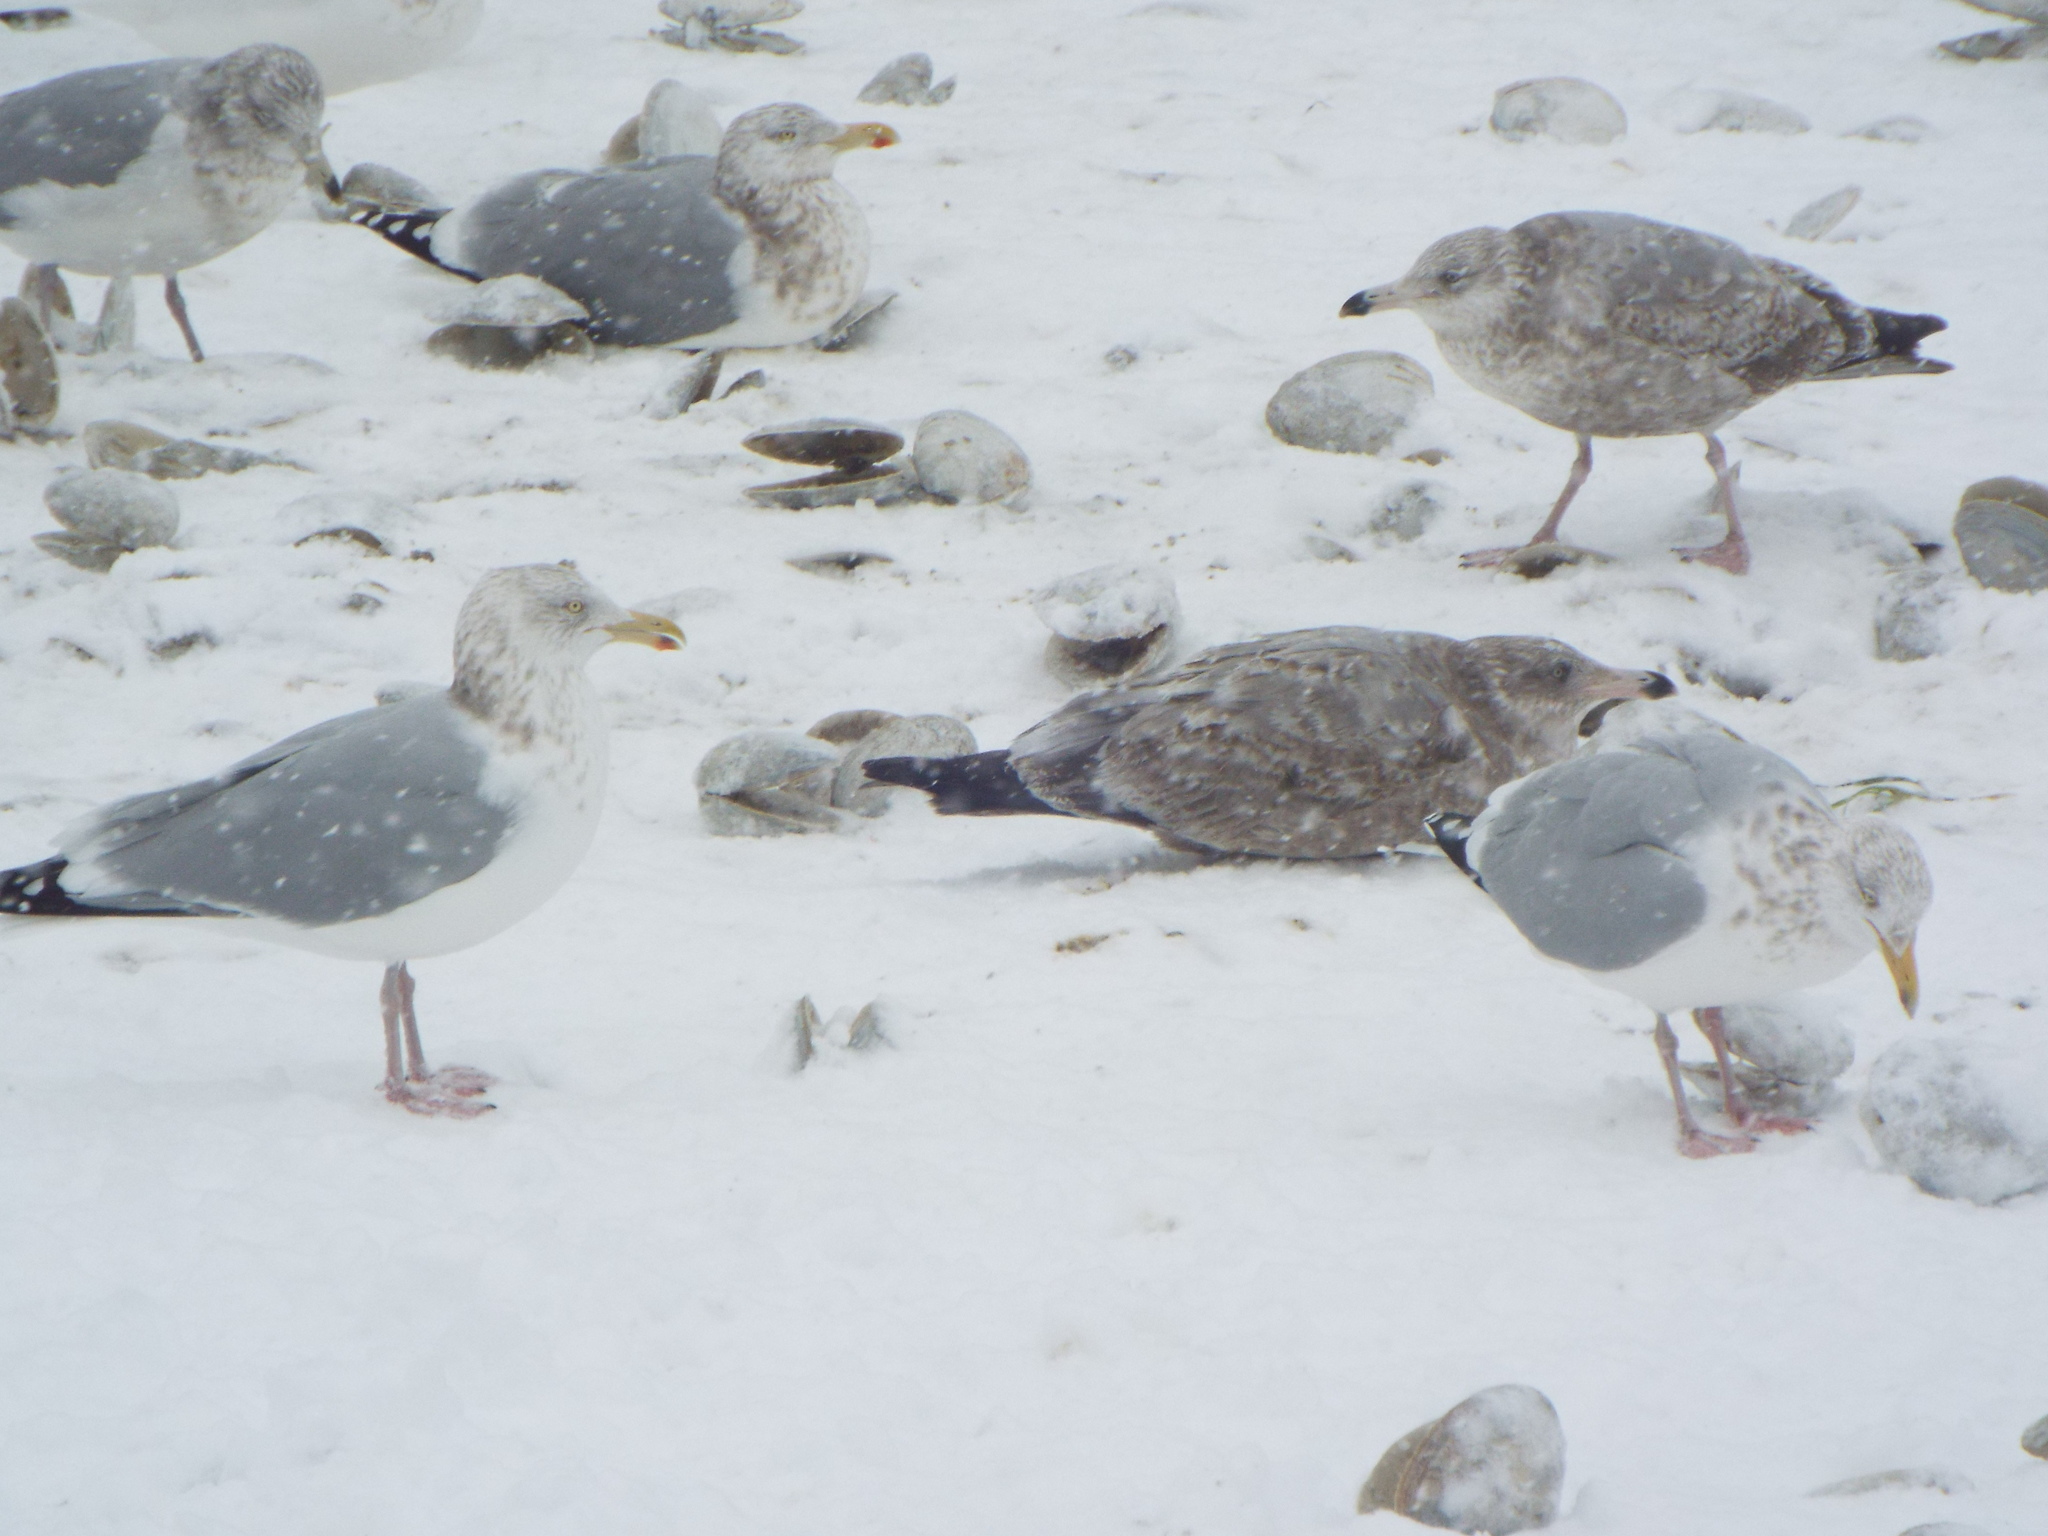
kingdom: Animalia
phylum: Chordata
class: Aves
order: Charadriiformes
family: Laridae
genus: Larus
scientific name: Larus argentatus
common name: Herring gull
